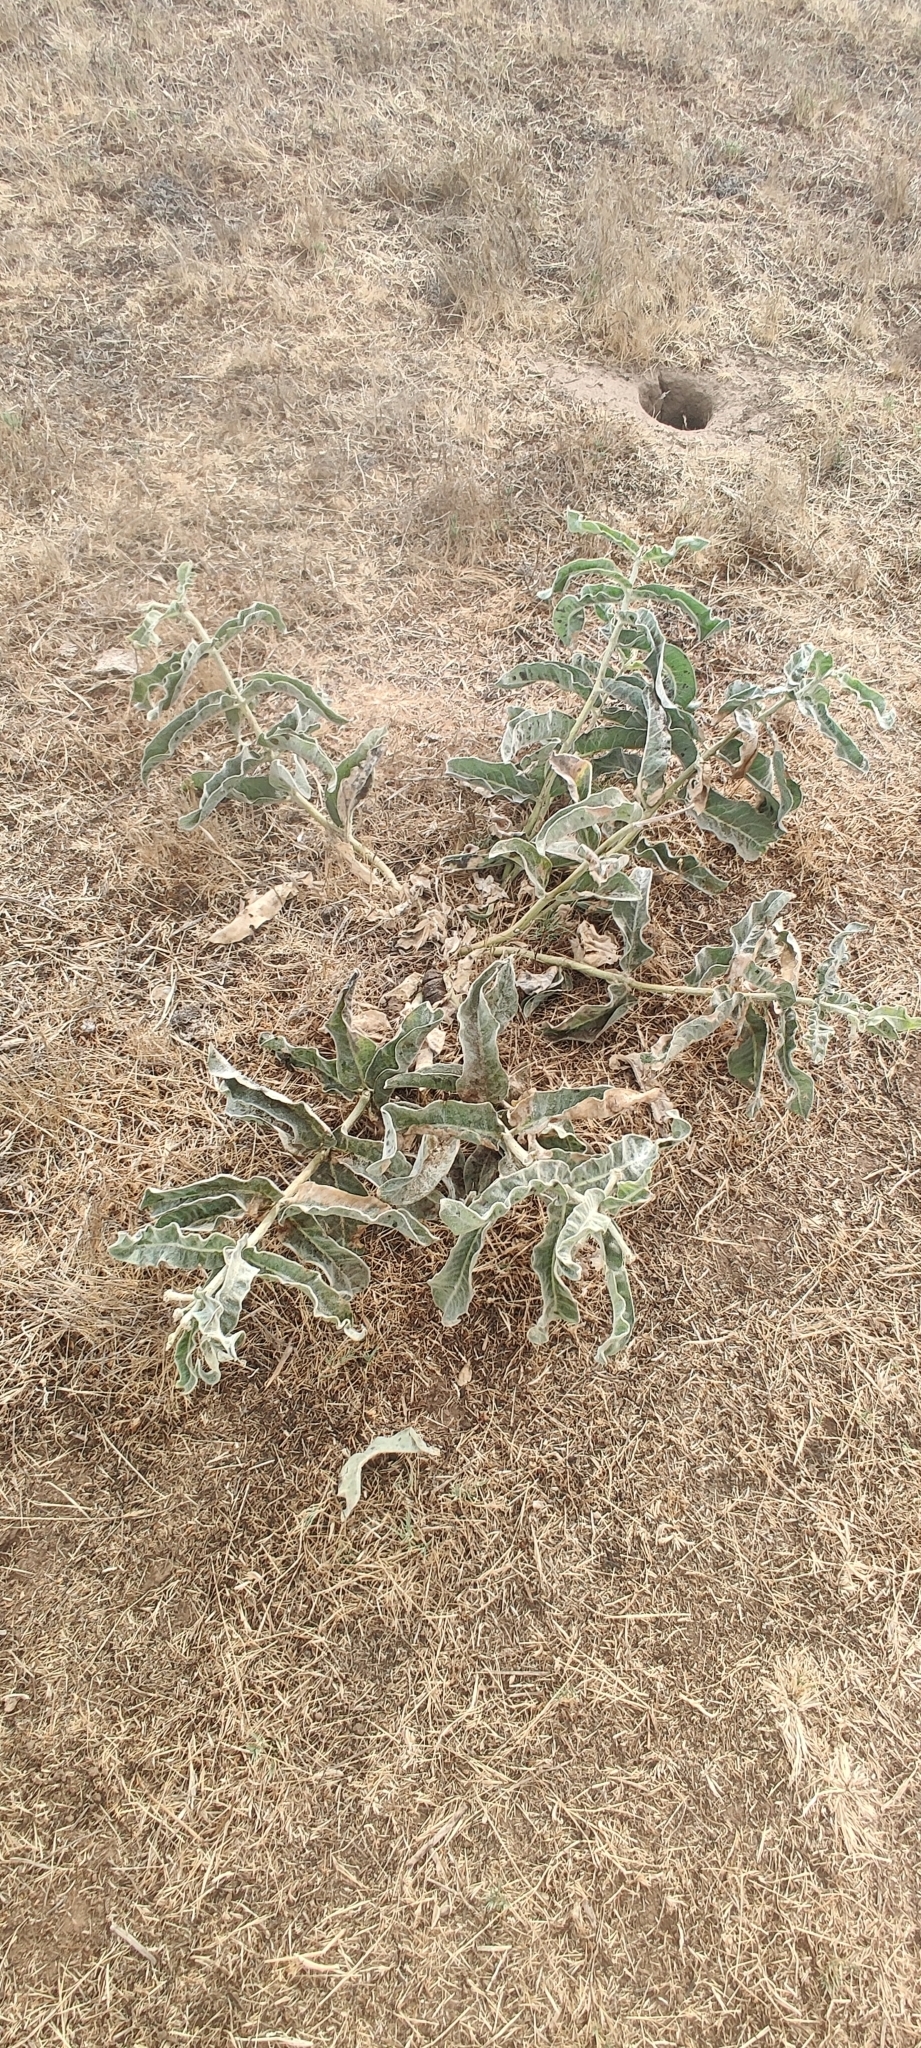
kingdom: Plantae
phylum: Tracheophyta
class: Magnoliopsida
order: Gentianales
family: Apocynaceae
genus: Asclepias
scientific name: Asclepias eriocarpa
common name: Indian milkweed
